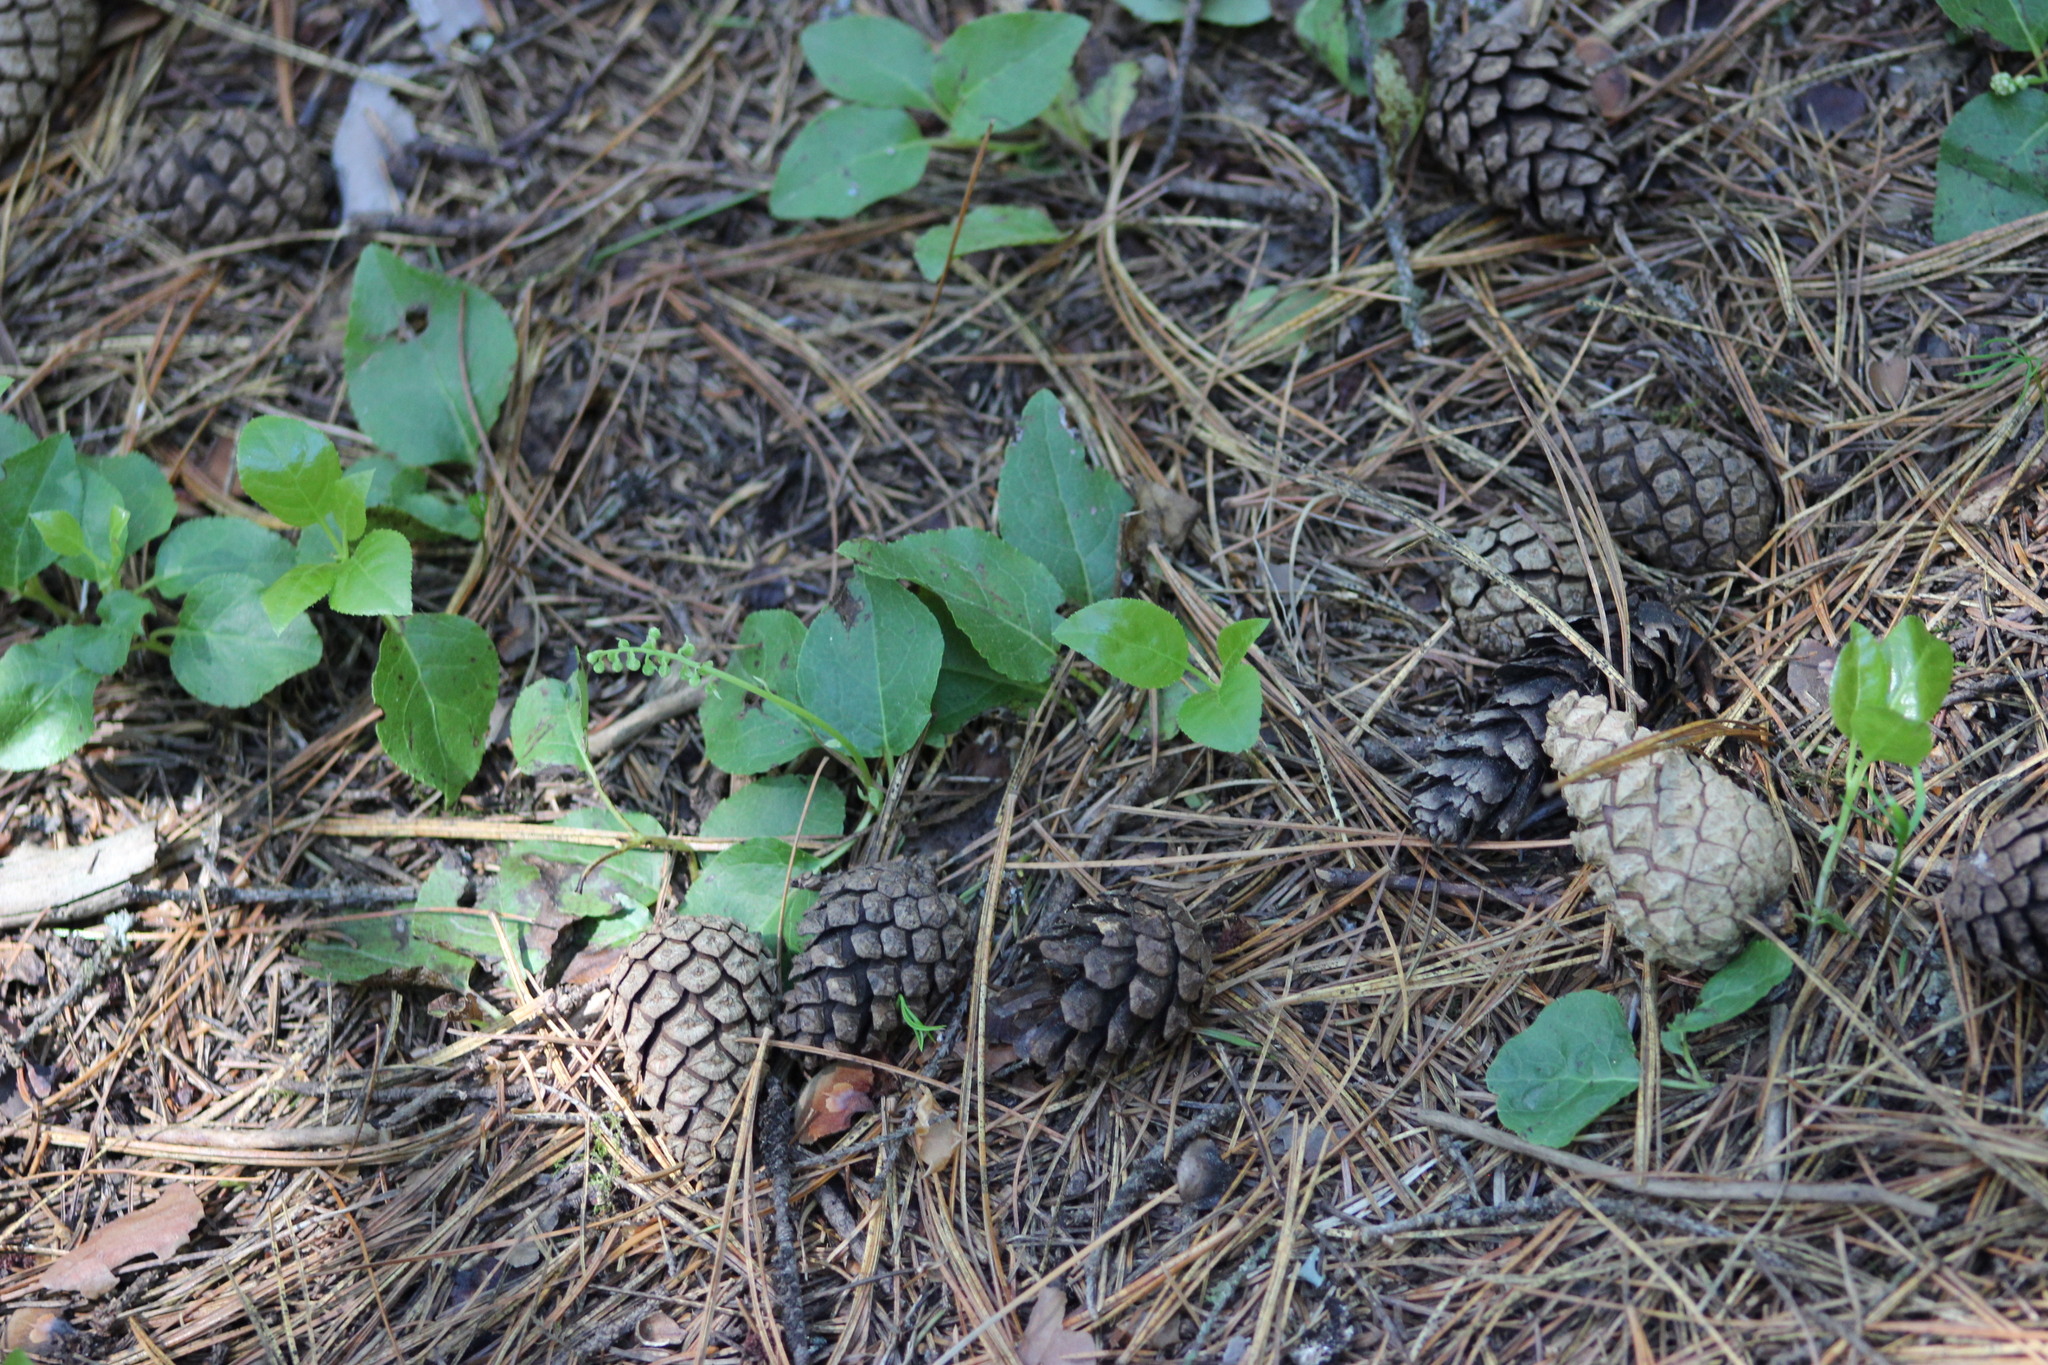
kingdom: Plantae
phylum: Tracheophyta
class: Magnoliopsida
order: Ericales
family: Ericaceae
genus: Orthilia
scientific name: Orthilia secunda
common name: One-sided orthilia
